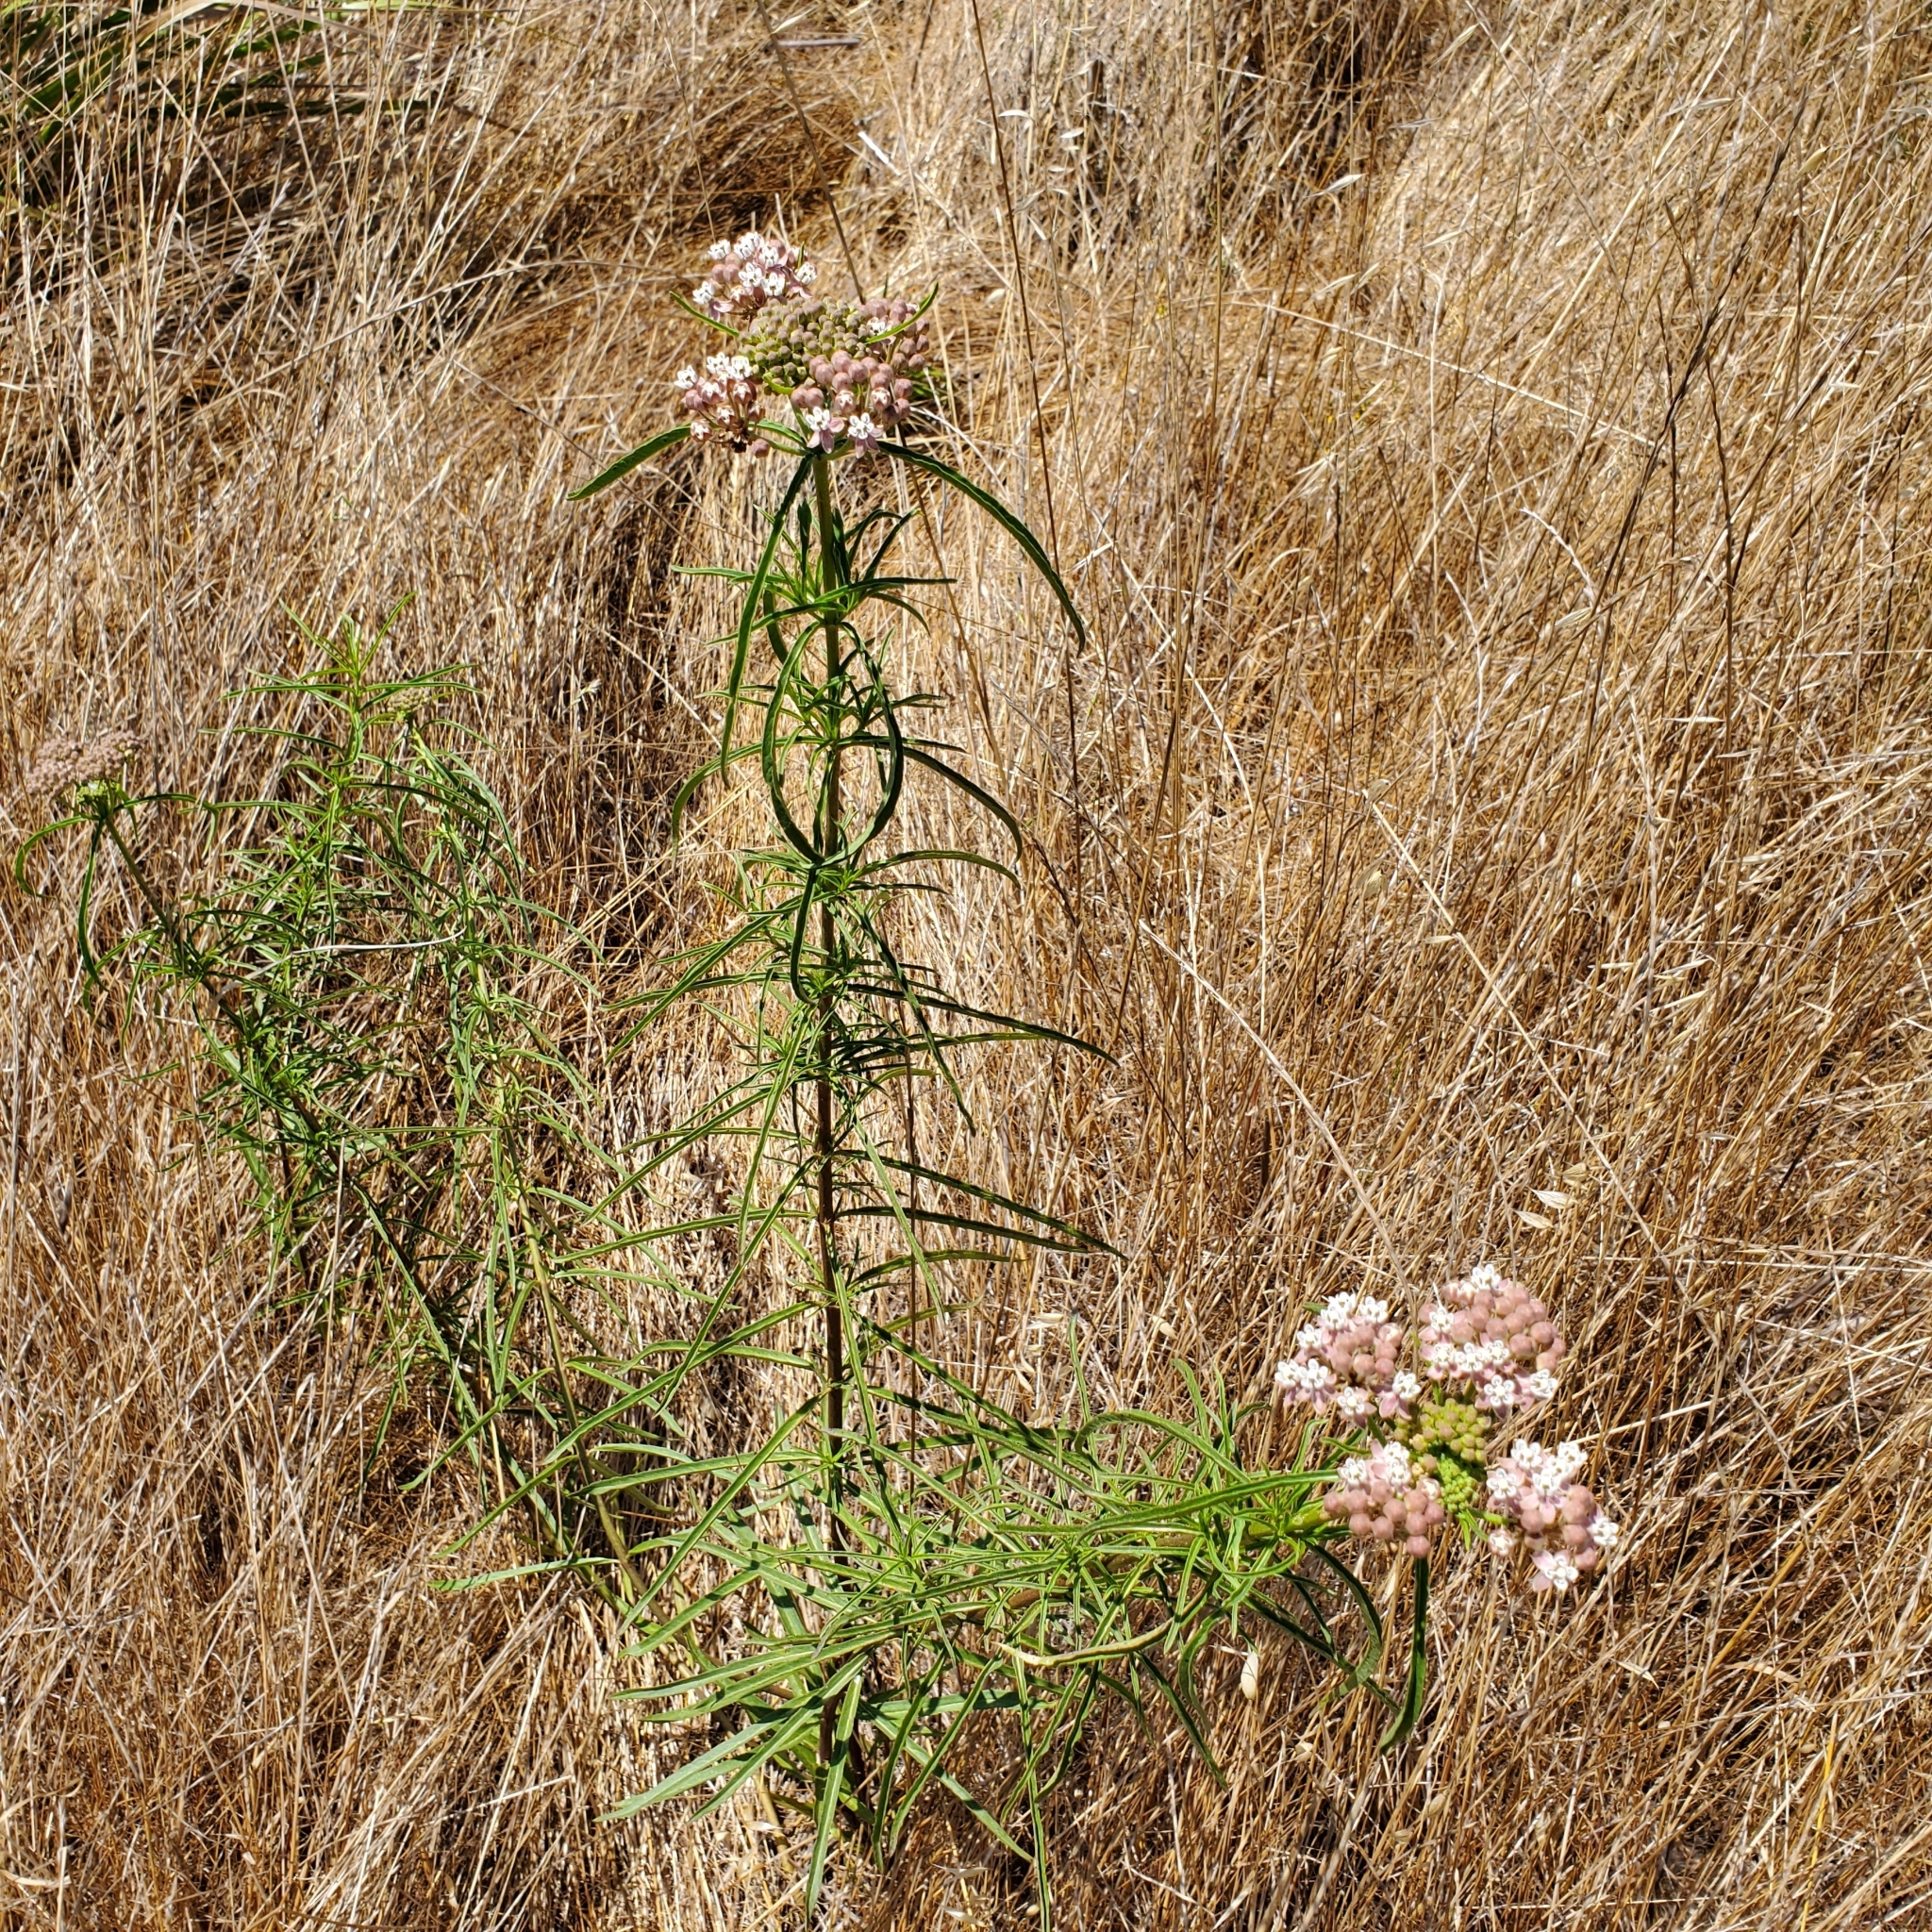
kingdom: Plantae
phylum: Tracheophyta
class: Magnoliopsida
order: Gentianales
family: Apocynaceae
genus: Asclepias
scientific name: Asclepias fascicularis
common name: Mexican milkweed
